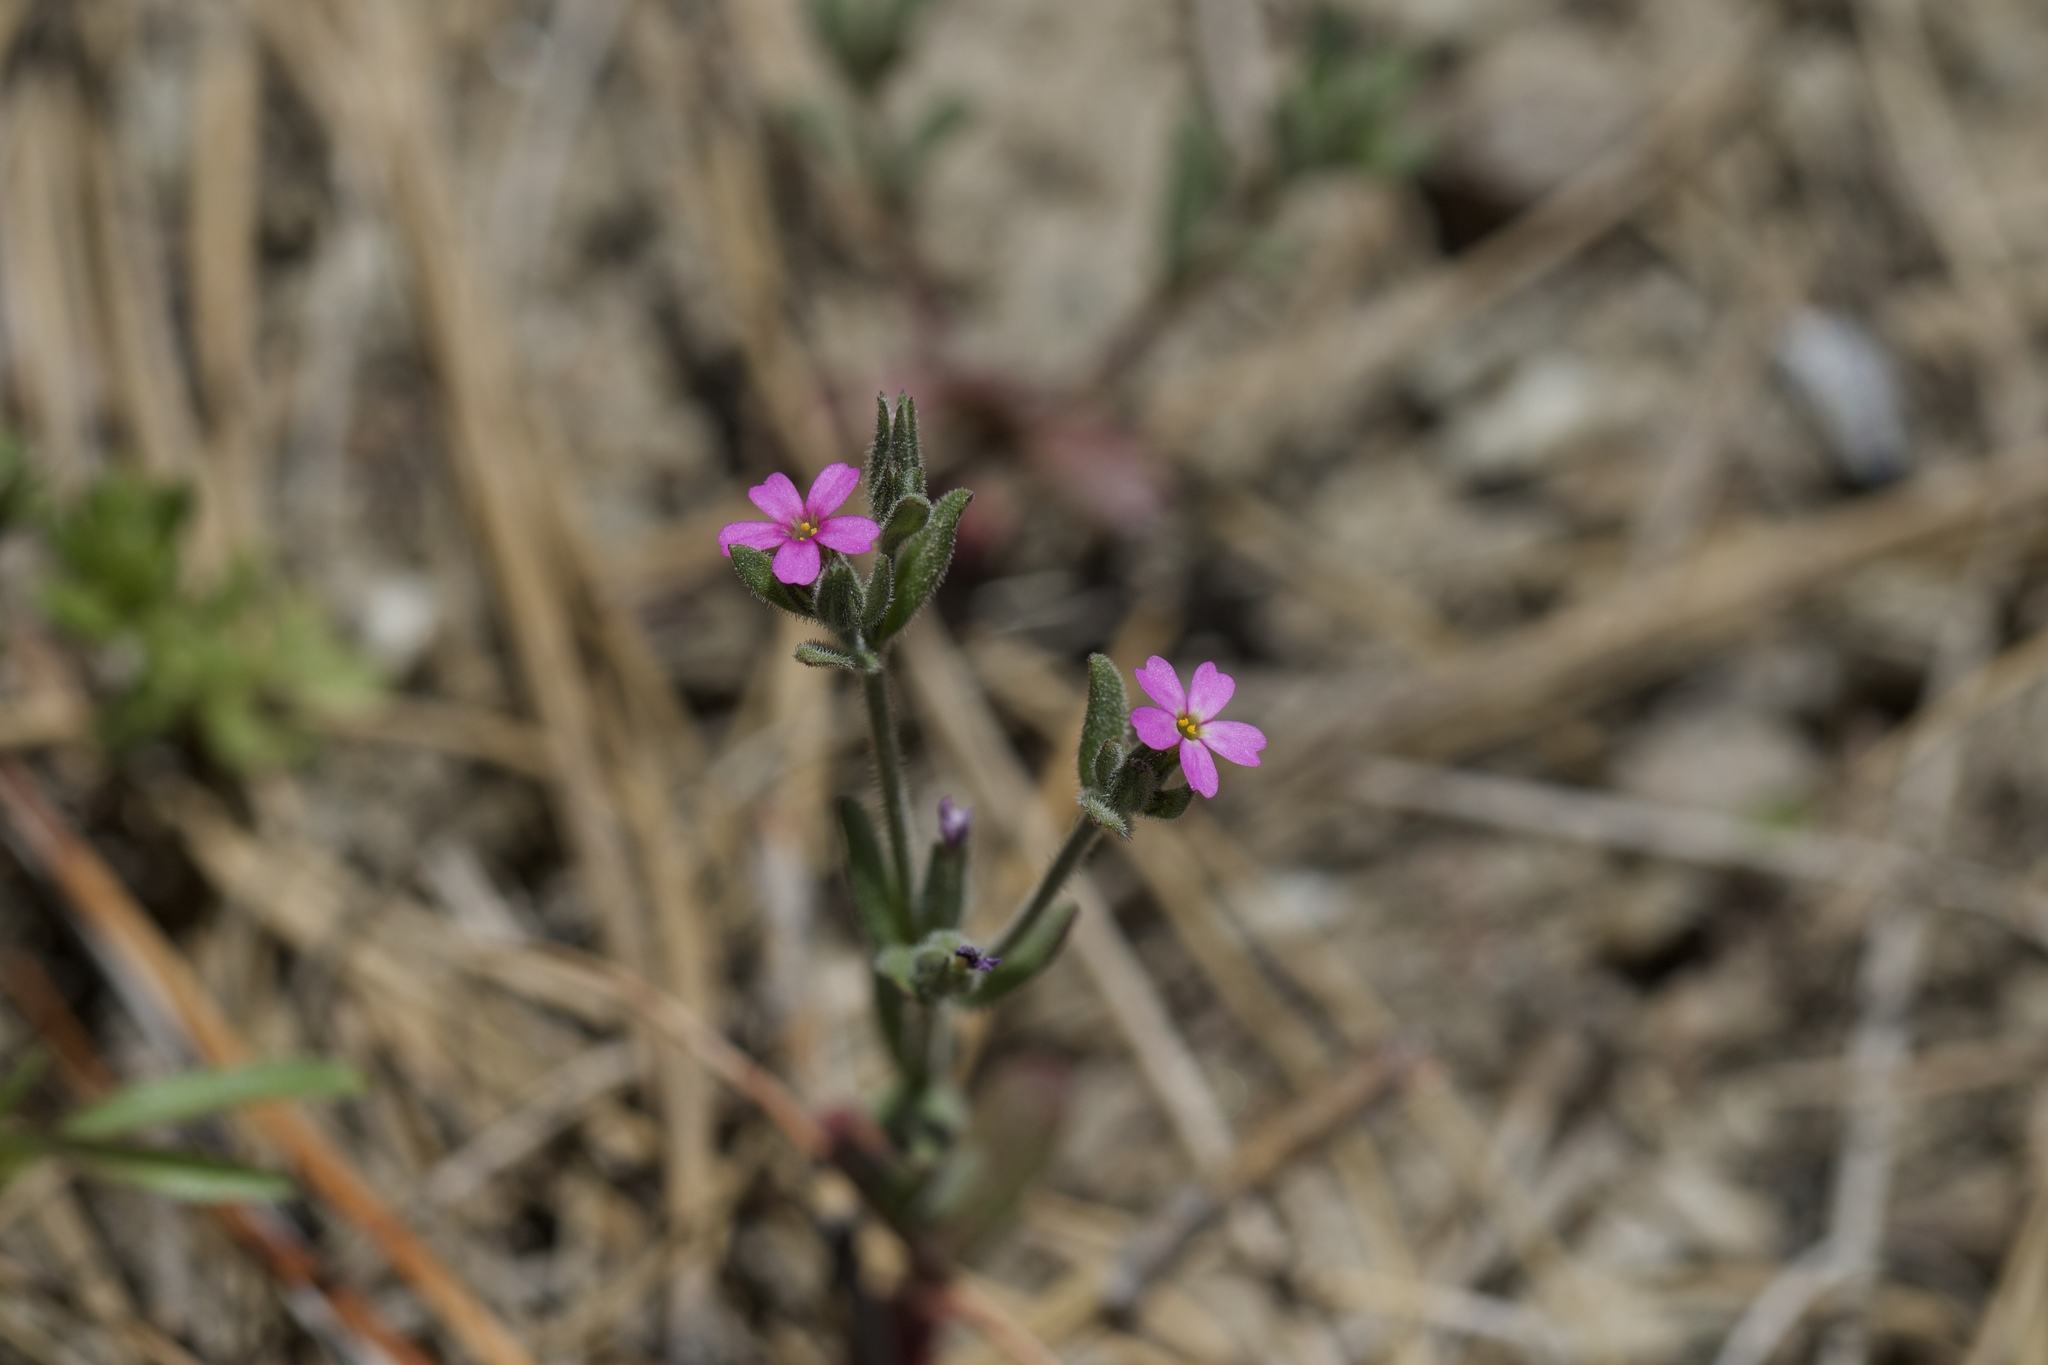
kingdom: Plantae
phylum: Tracheophyta
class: Magnoliopsida
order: Ericales
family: Polemoniaceae
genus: Phlox
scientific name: Phlox gracilis
